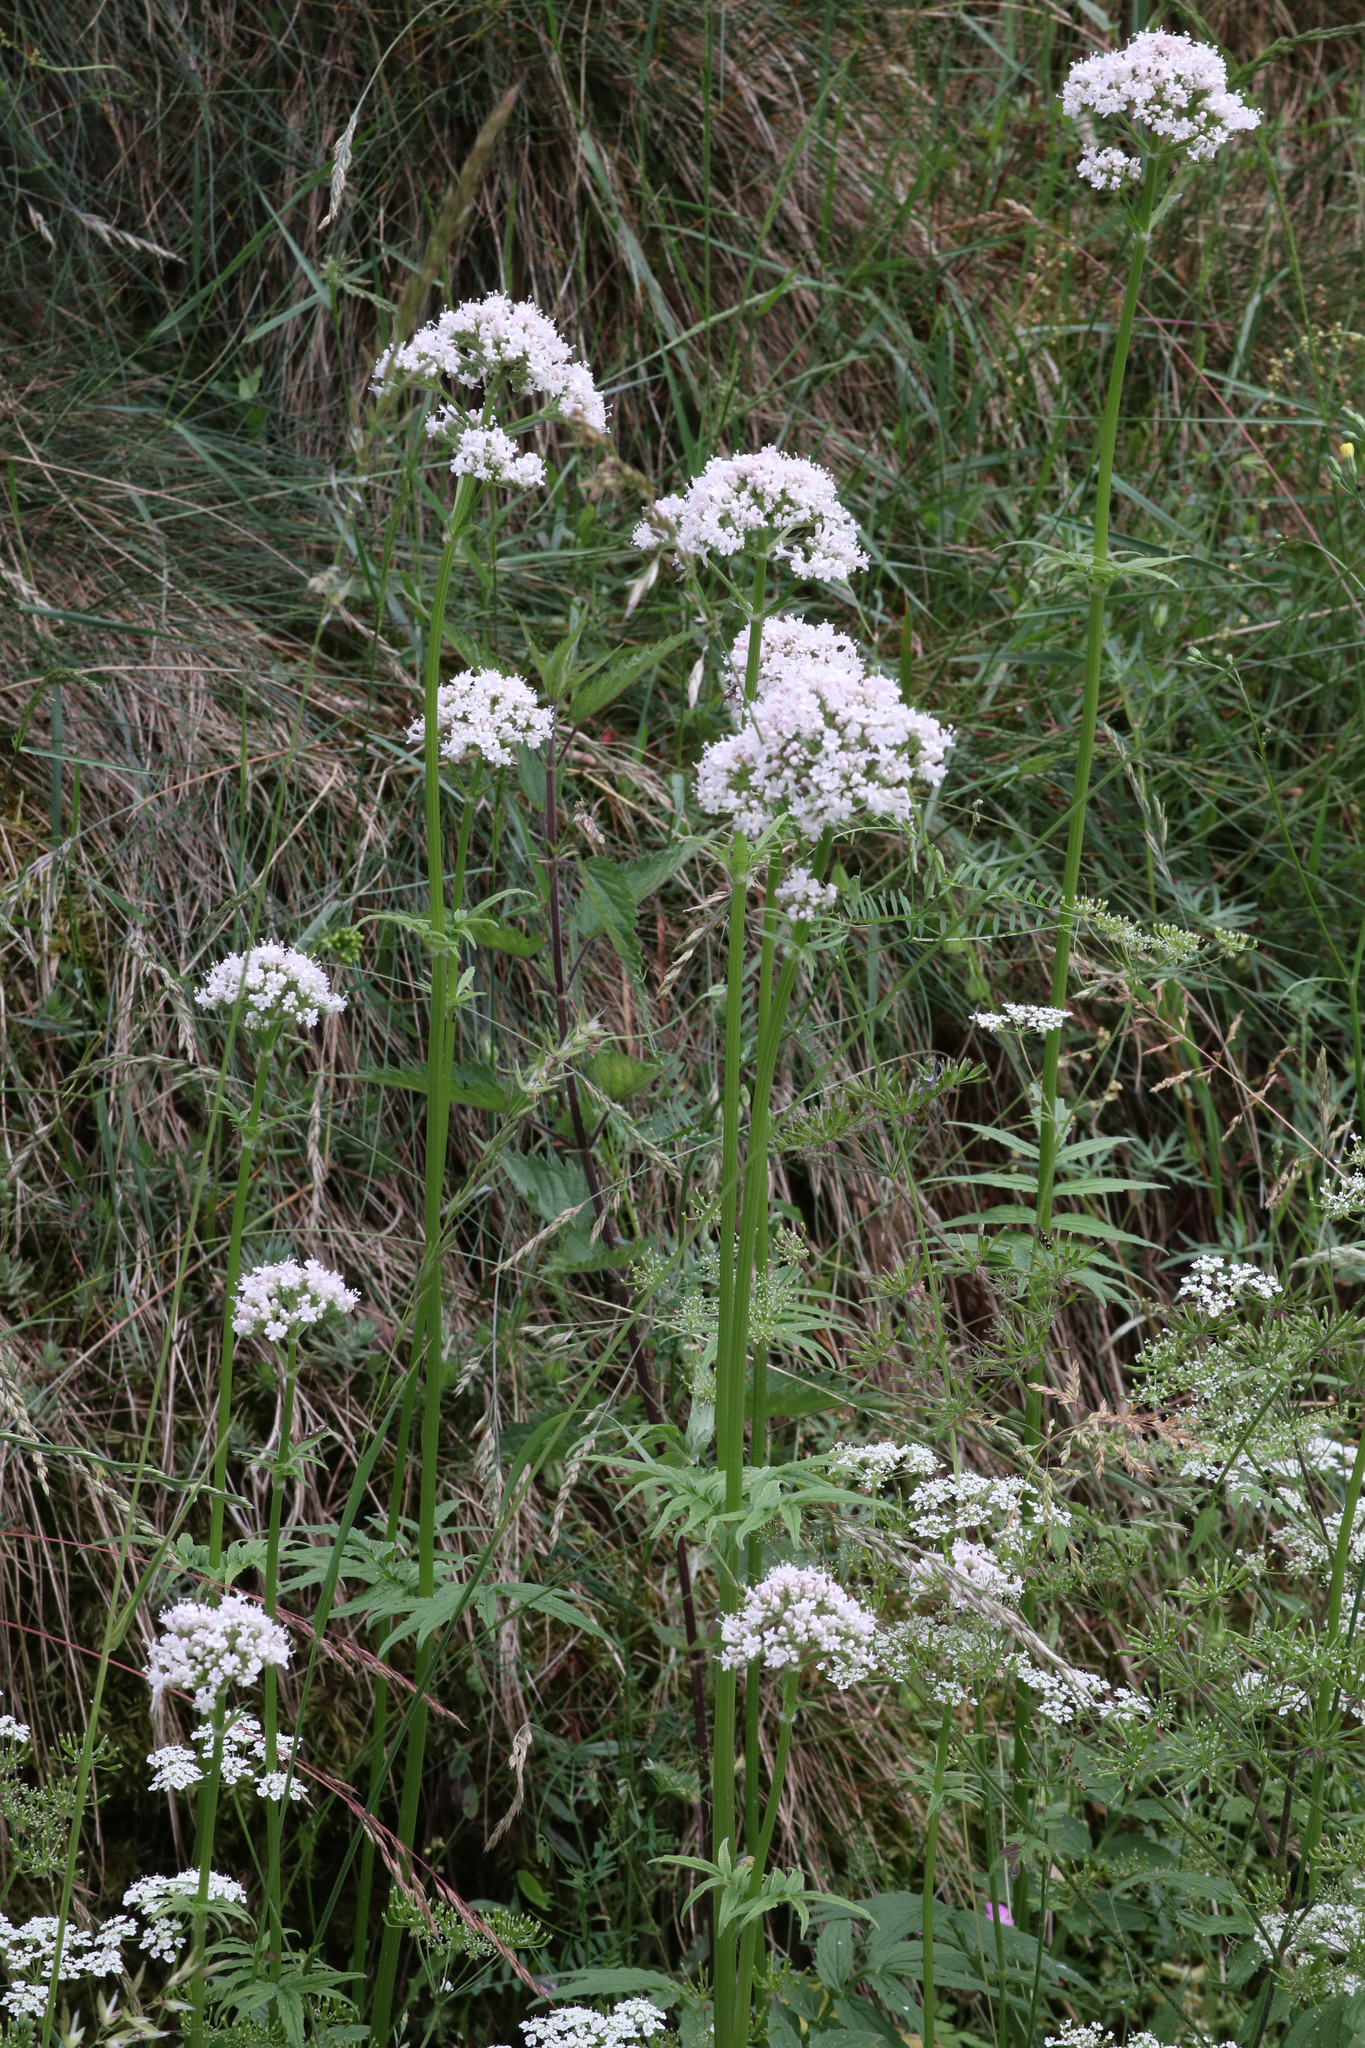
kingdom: Plantae
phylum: Tracheophyta
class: Magnoliopsida
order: Dipsacales
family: Caprifoliaceae
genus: Valeriana
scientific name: Valeriana officinalis
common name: Common valerian
